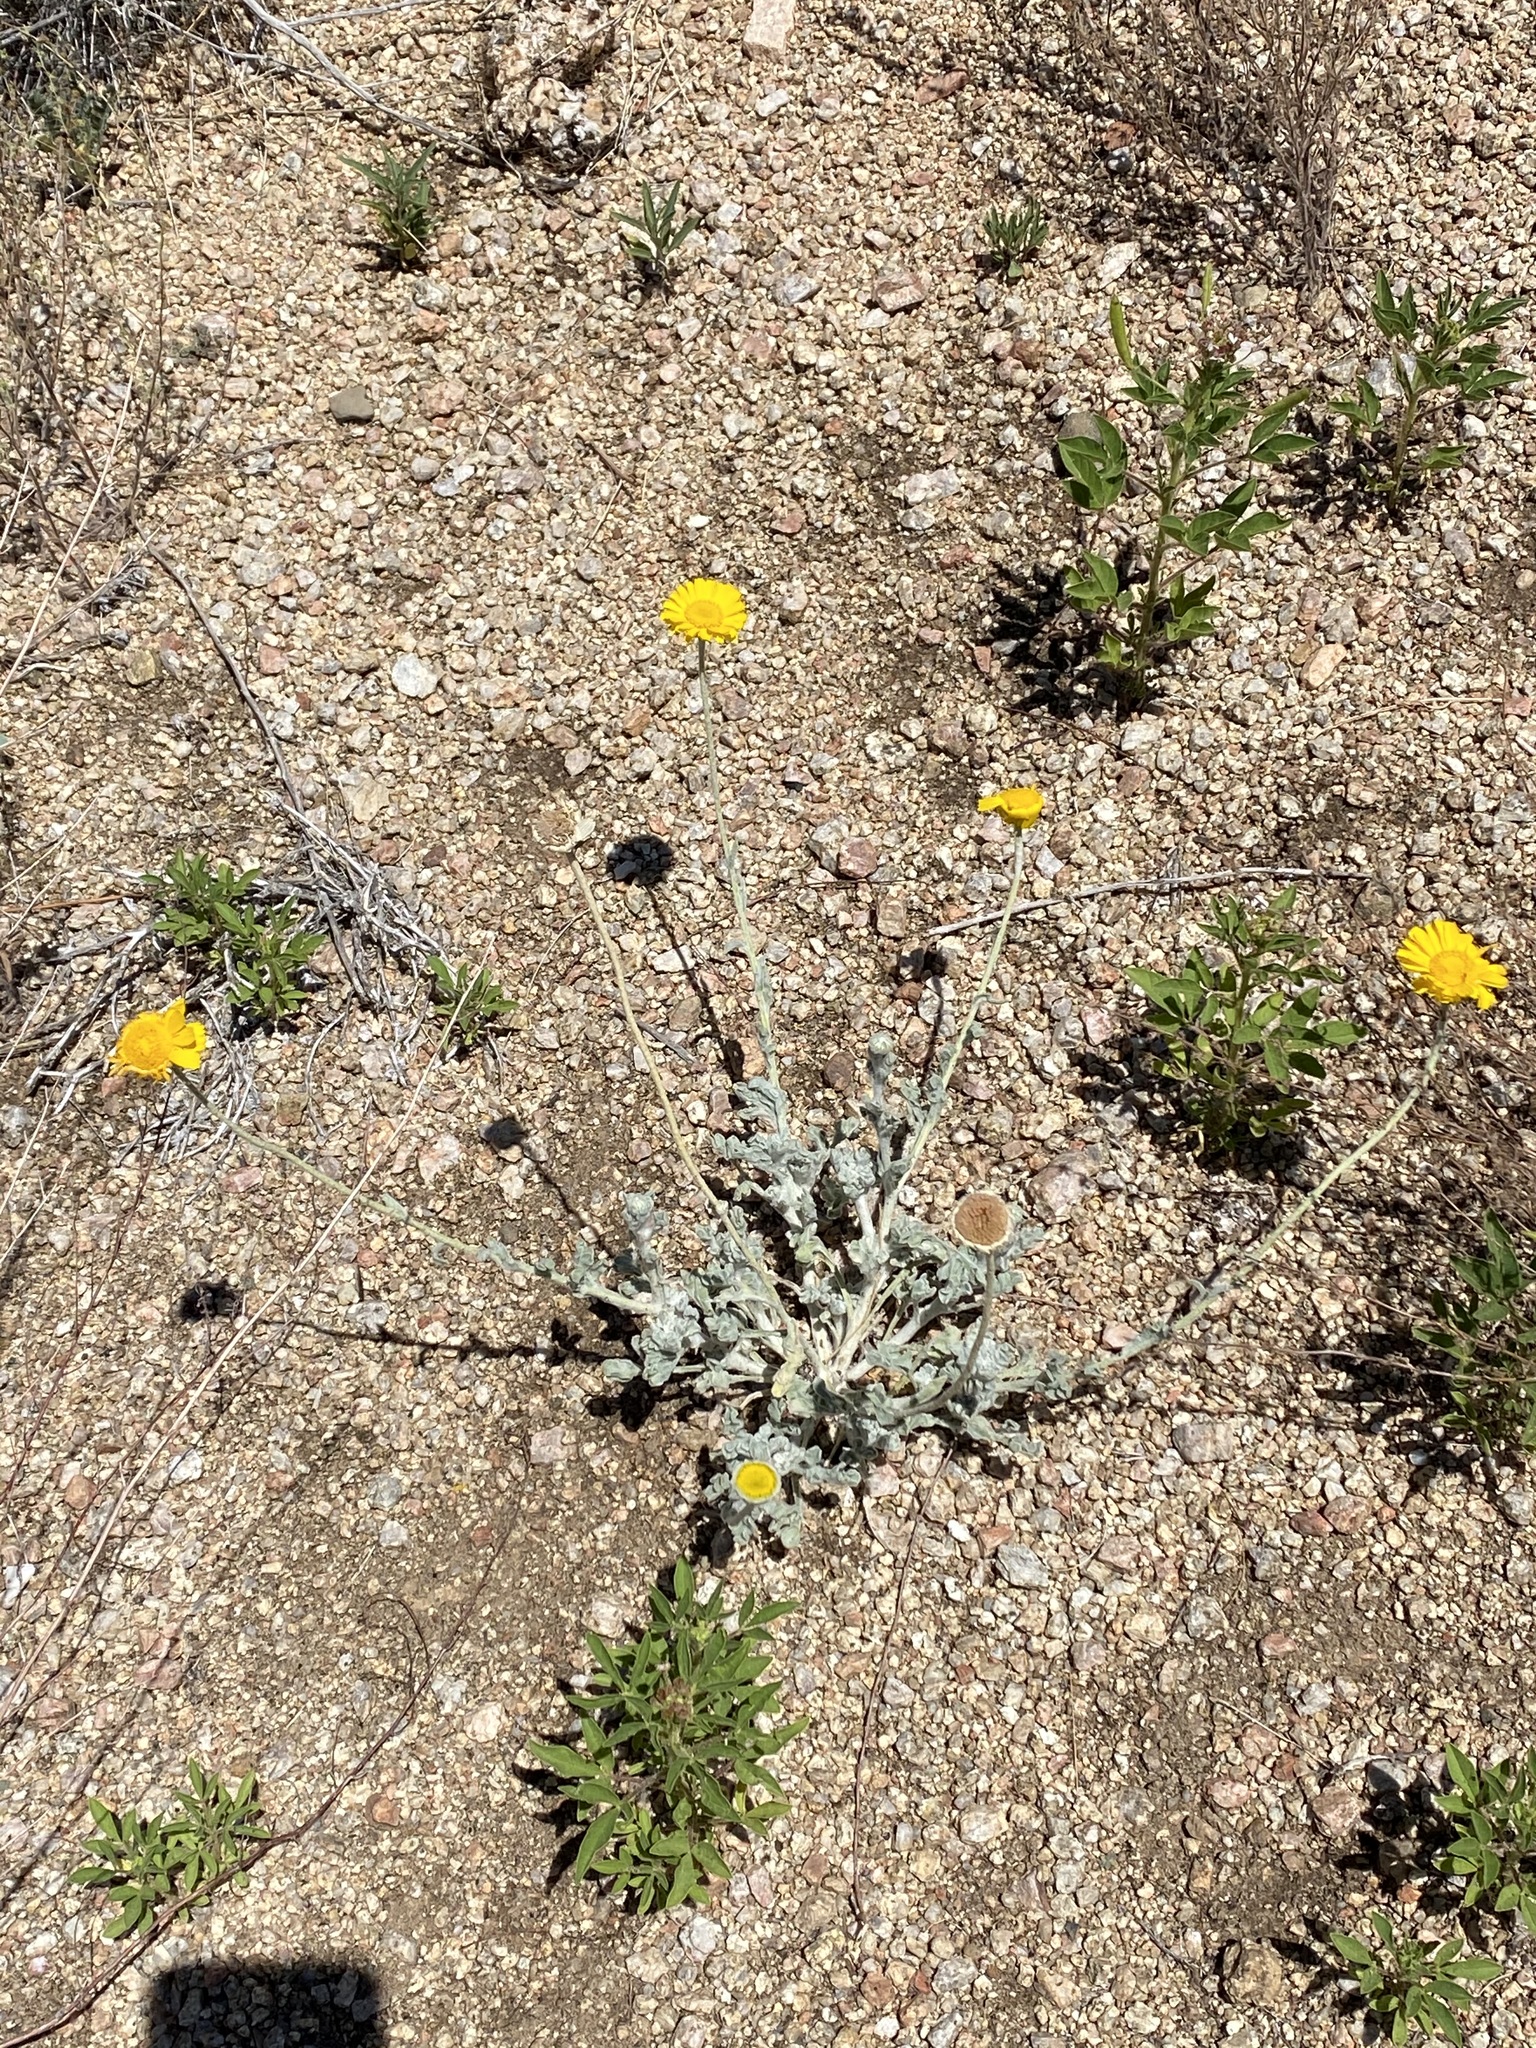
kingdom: Plantae
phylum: Tracheophyta
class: Magnoliopsida
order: Asterales
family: Asteraceae
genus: Baileya
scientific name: Baileya multiradiata
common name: Desert-marigold
